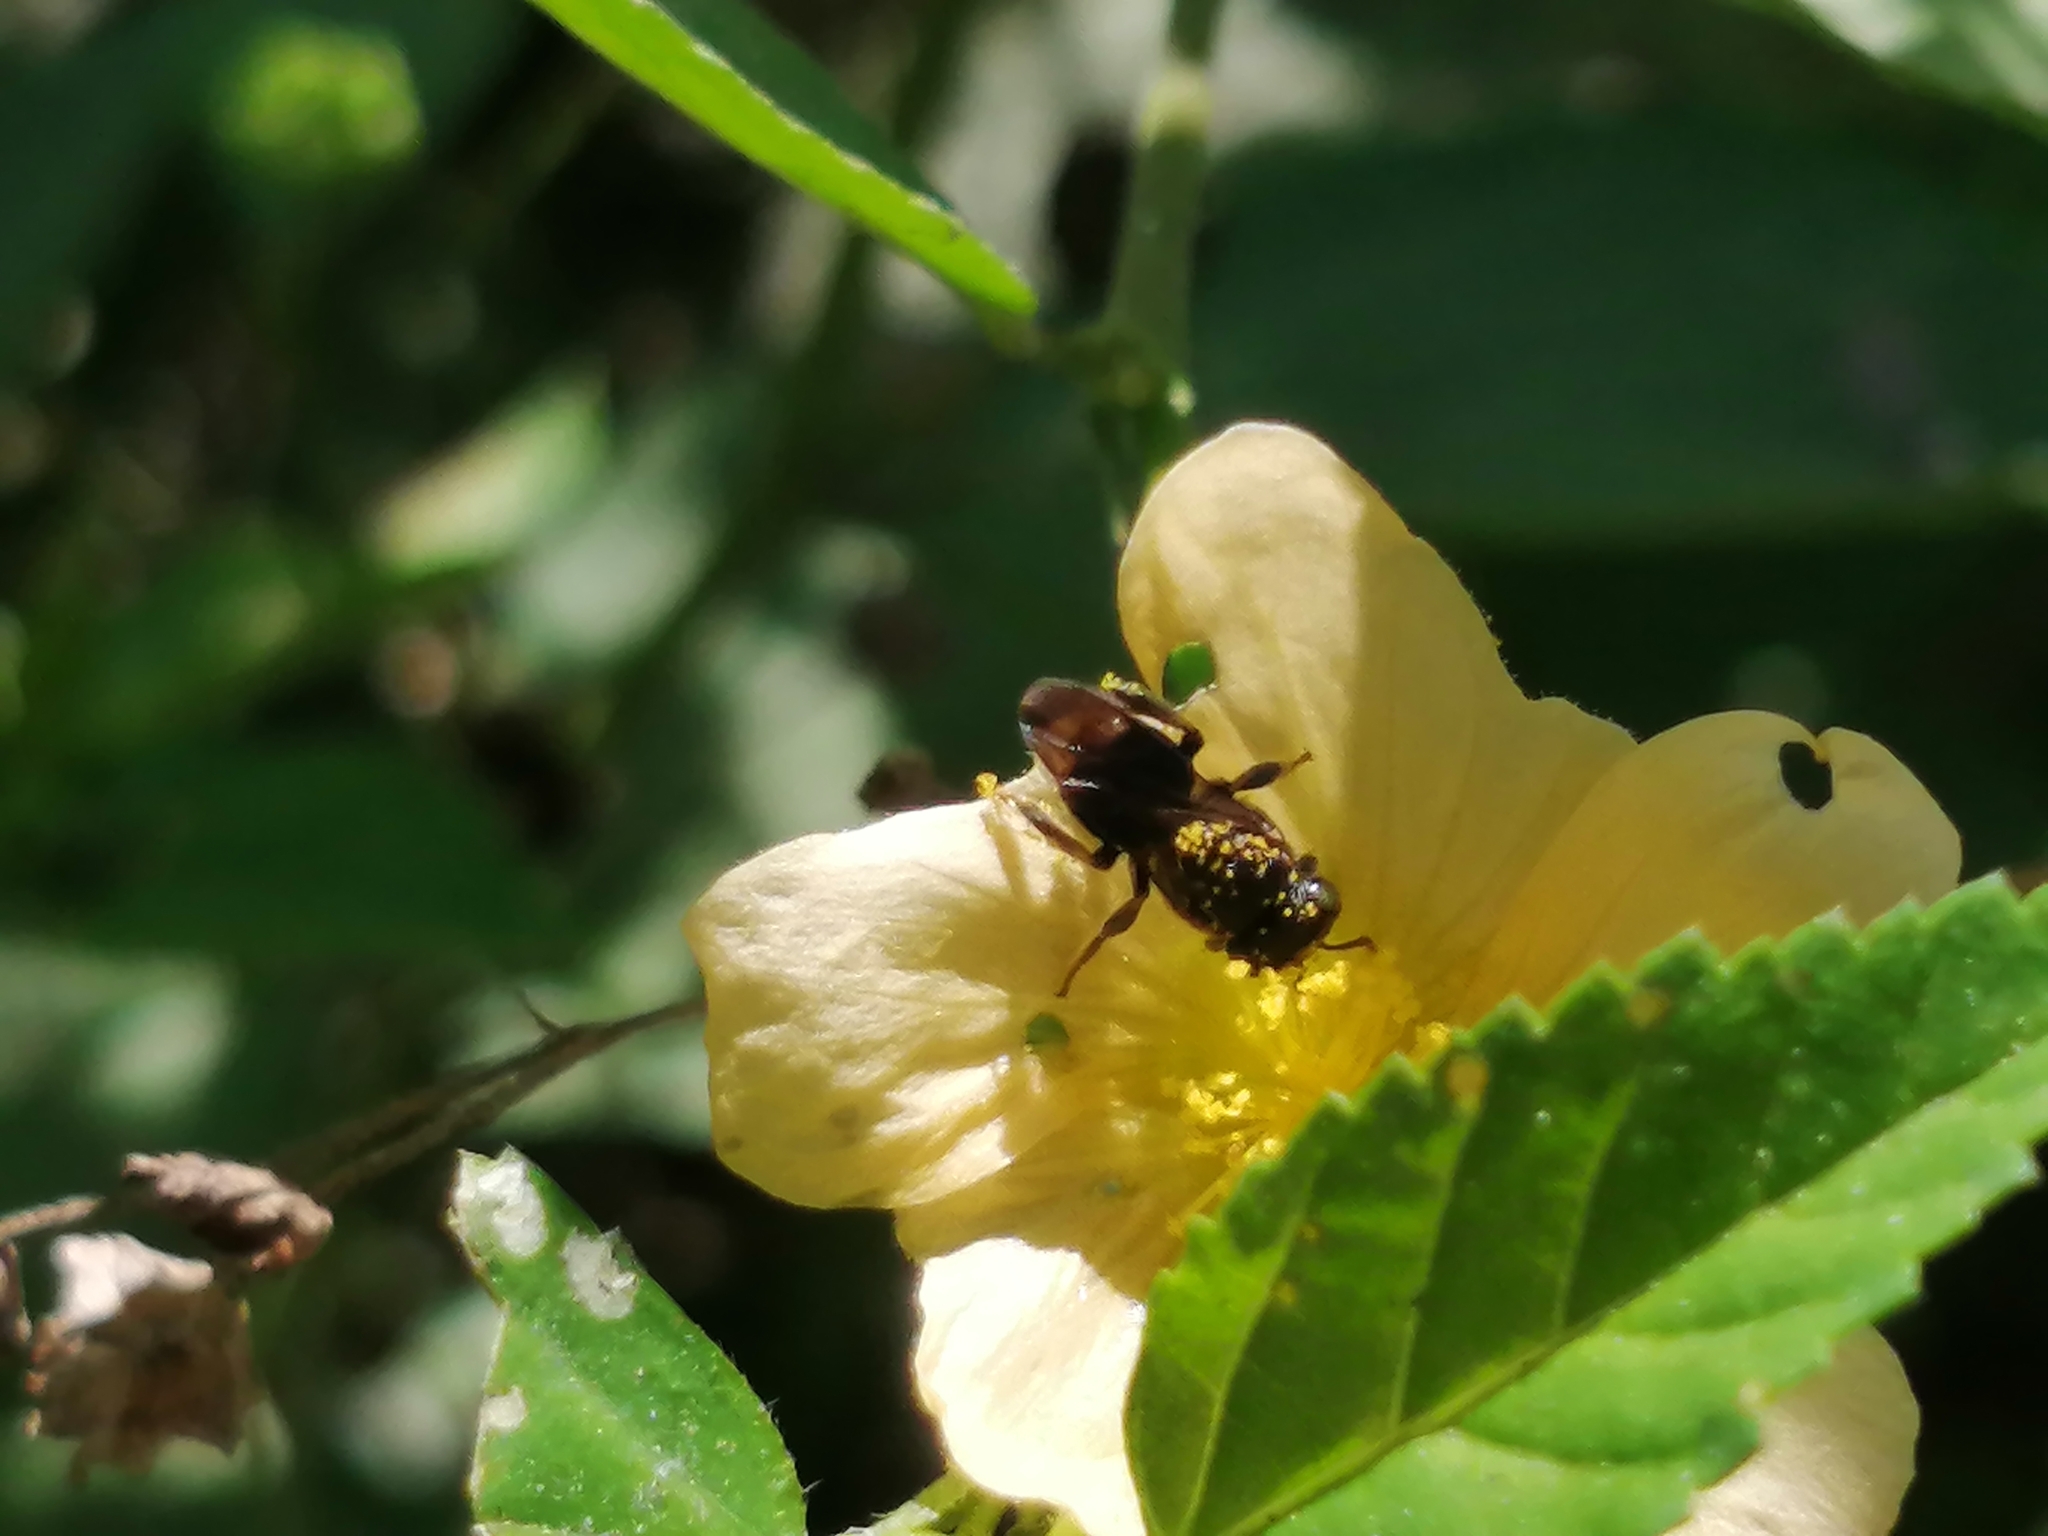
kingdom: Animalia
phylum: Arthropoda
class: Insecta
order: Hymenoptera
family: Apidae
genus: Nannotrigona
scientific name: Nannotrigona perilampoides
